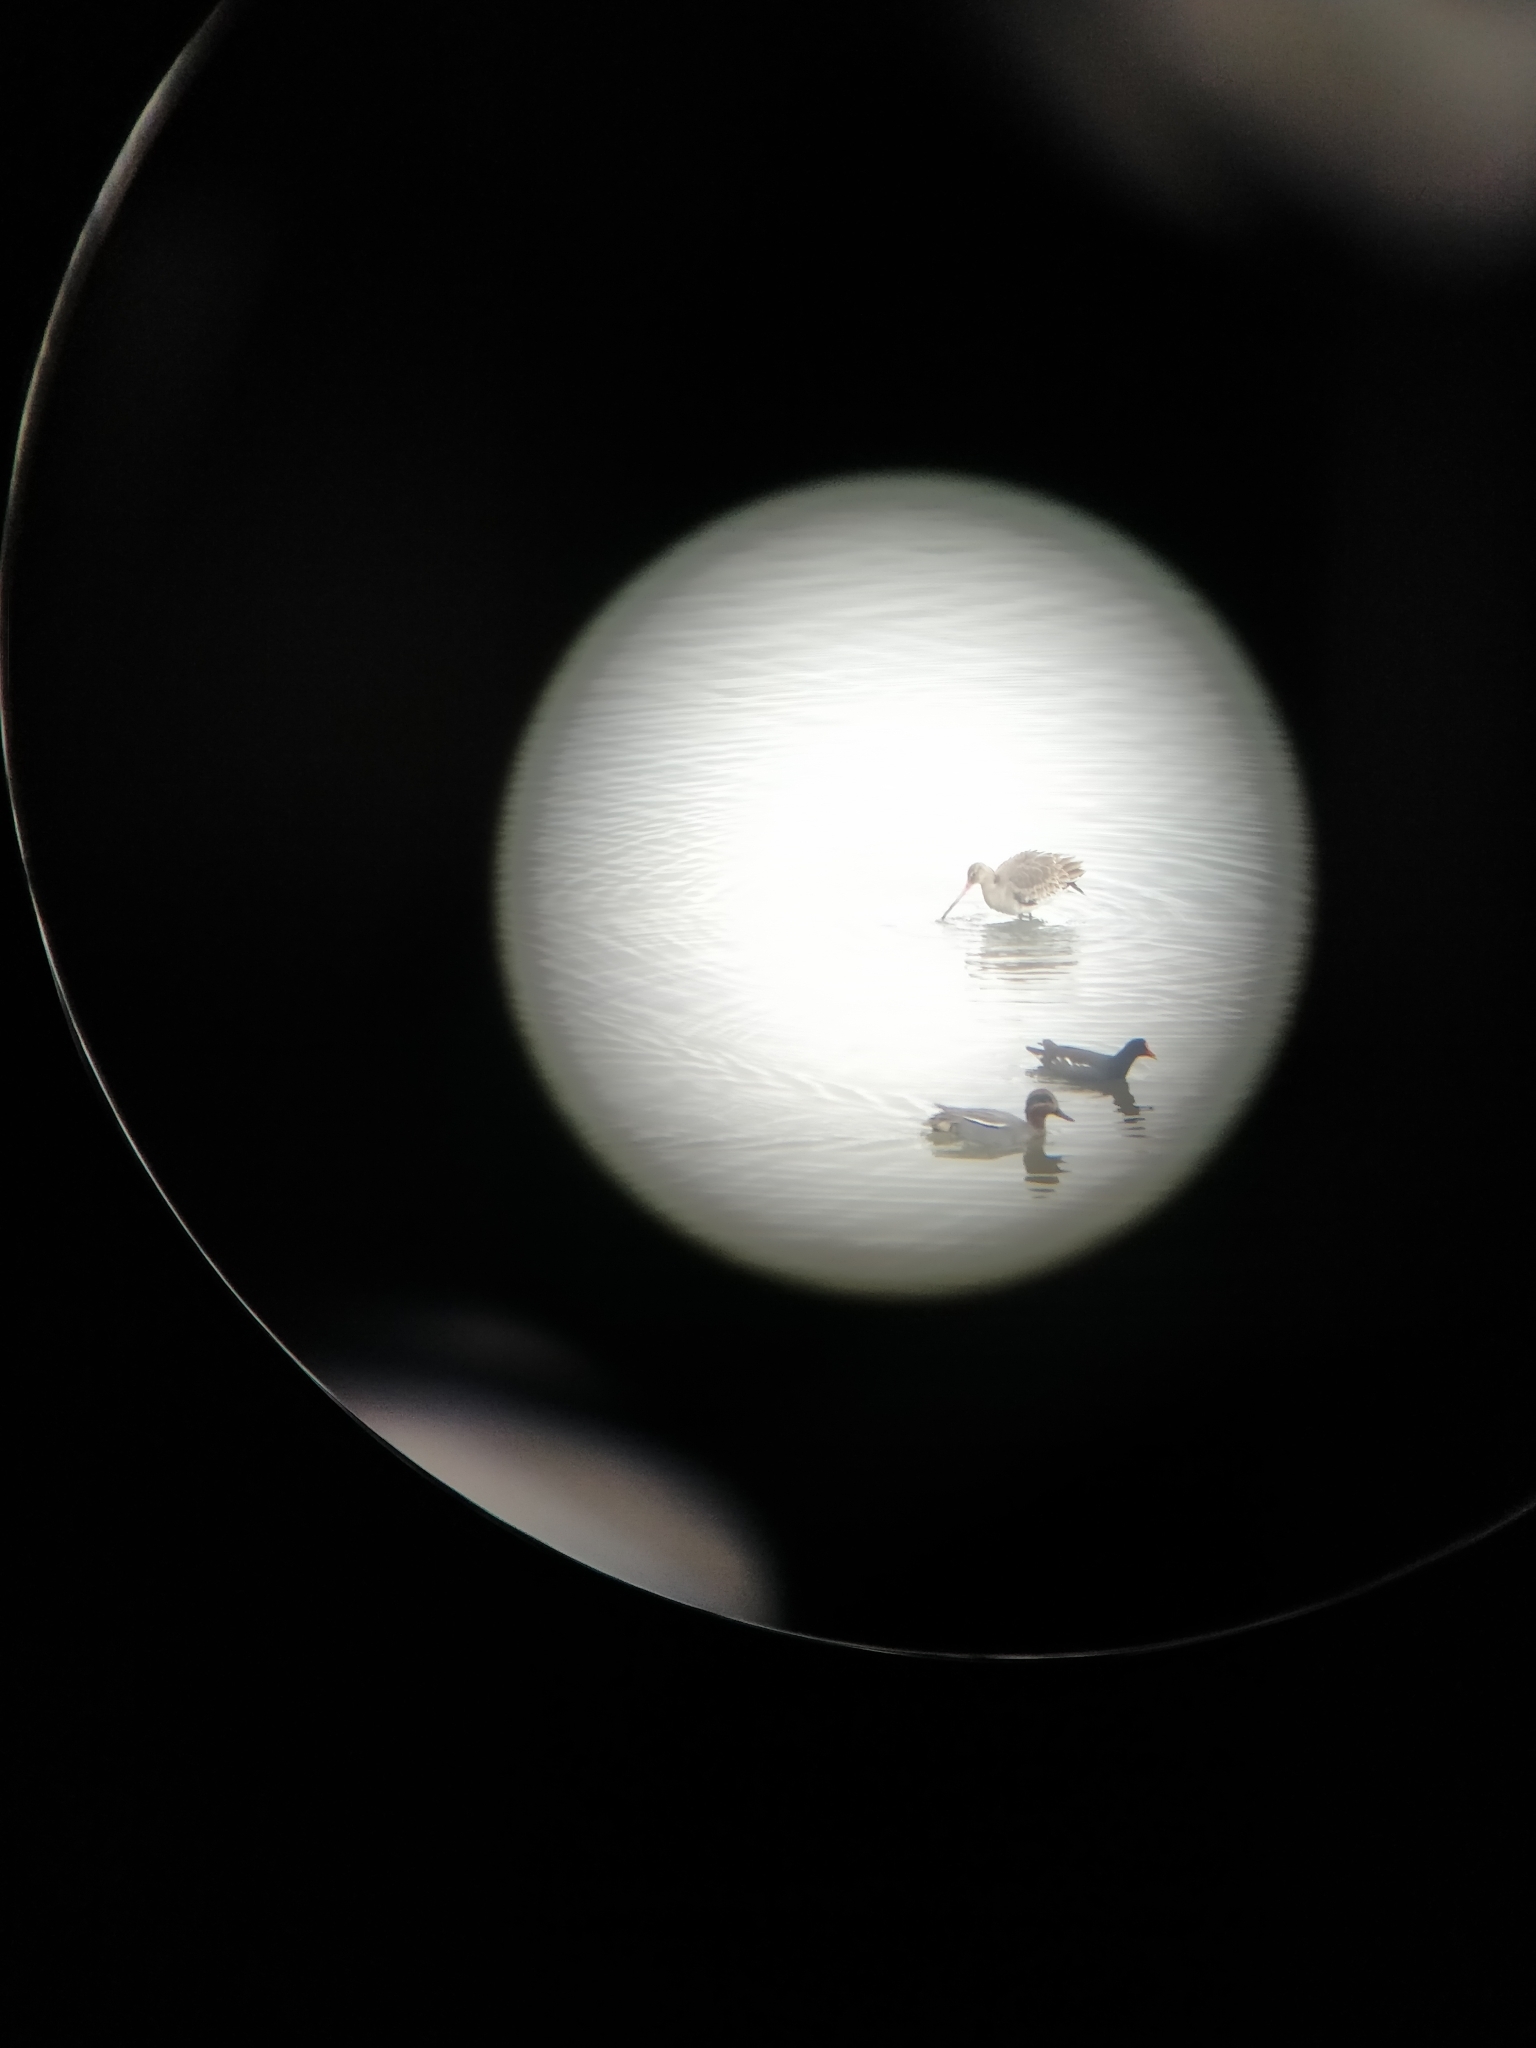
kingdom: Animalia
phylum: Chordata
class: Aves
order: Anseriformes
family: Anatidae
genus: Anas
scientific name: Anas crecca
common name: Eurasian teal
